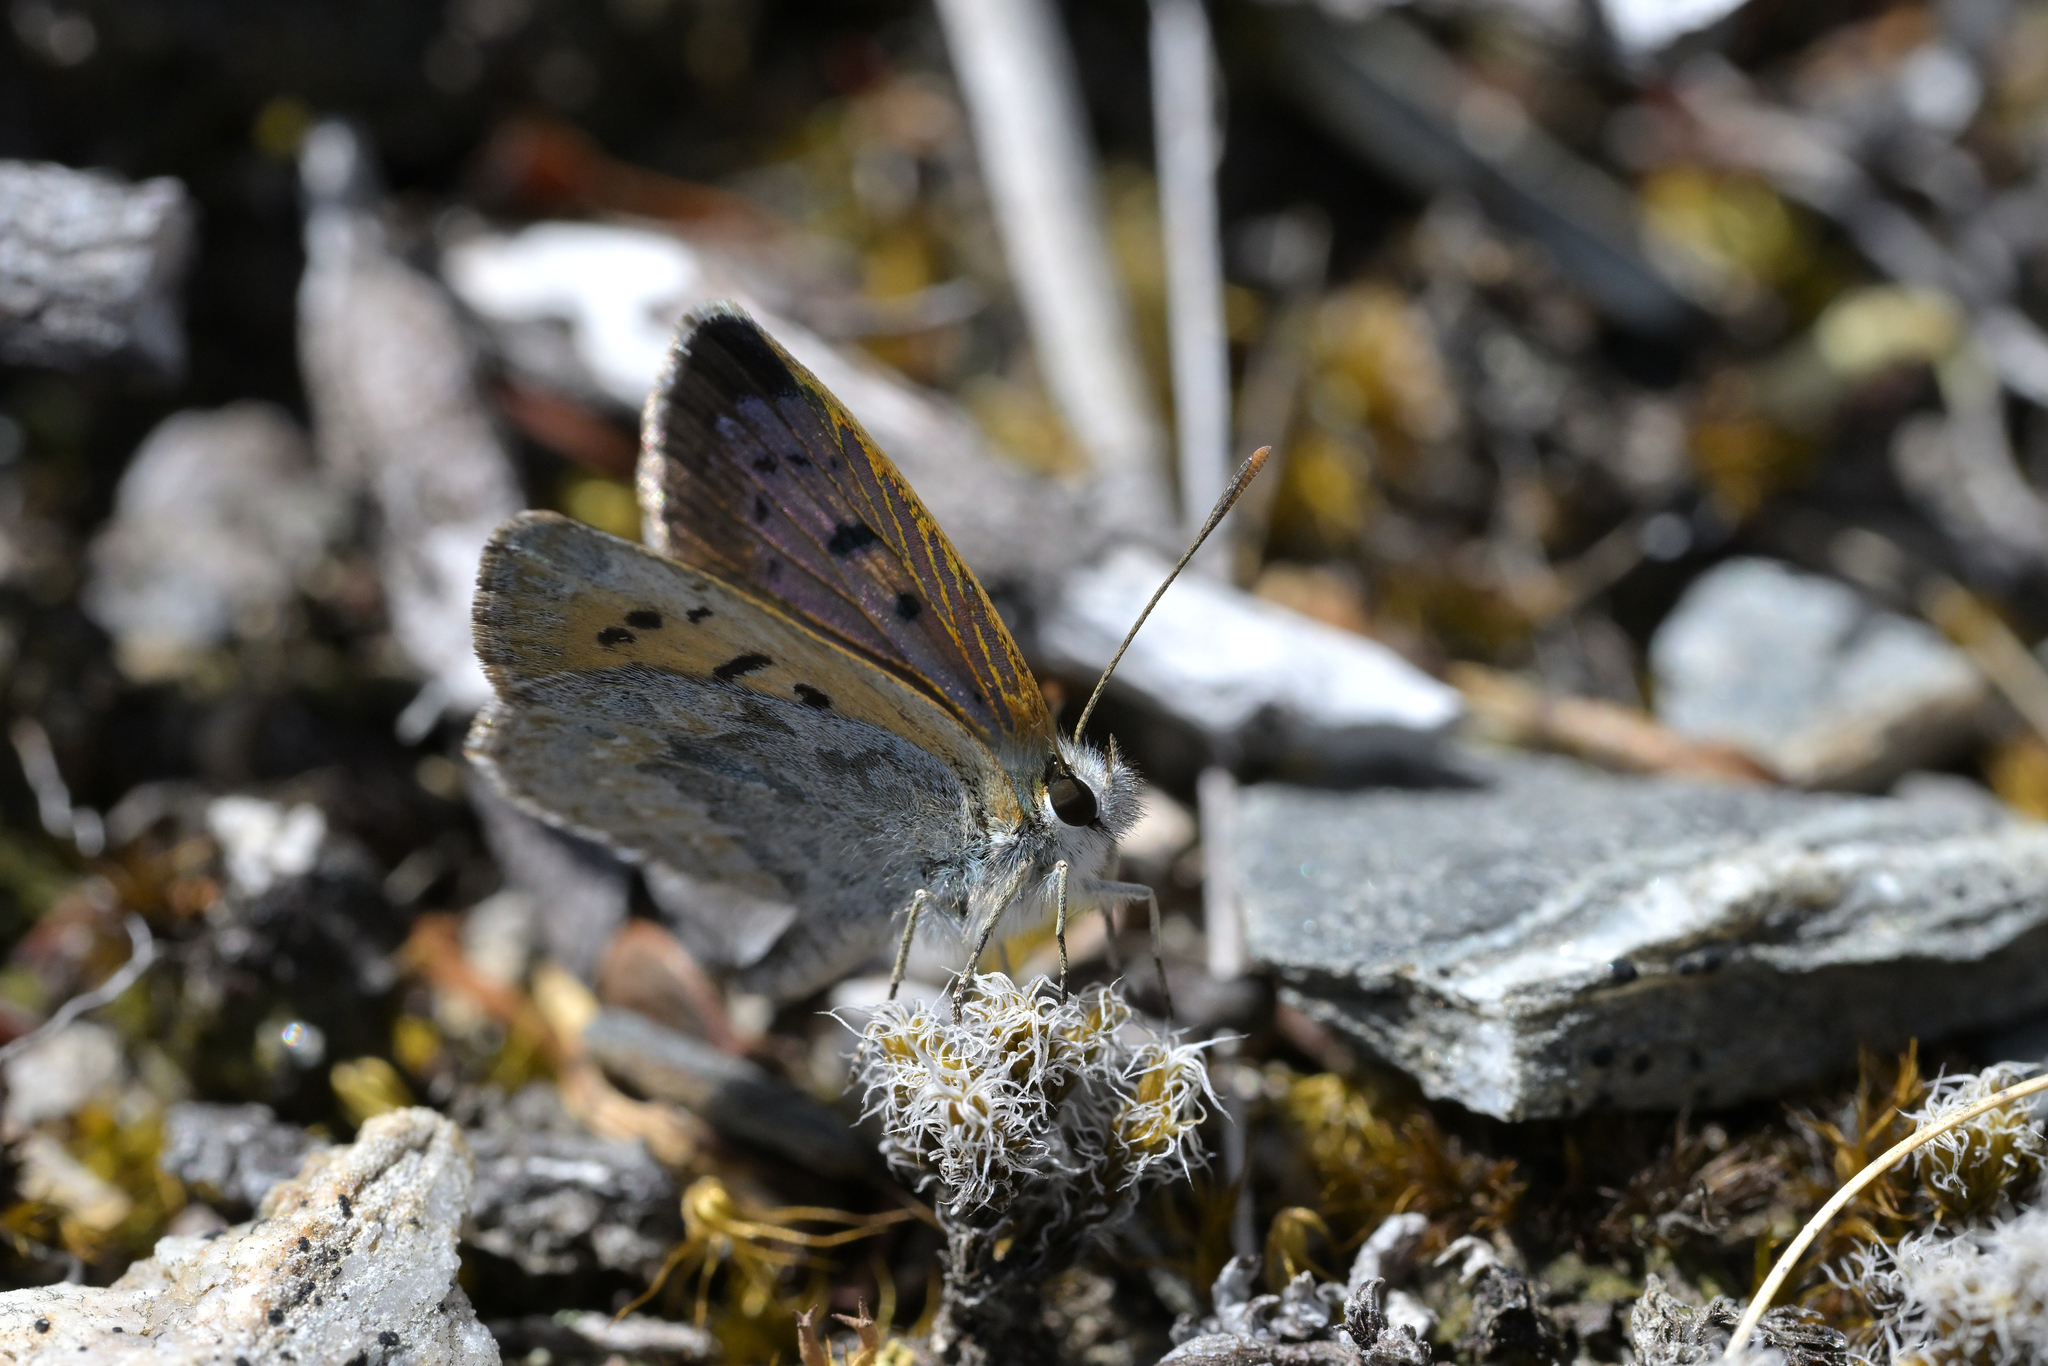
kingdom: Animalia
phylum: Arthropoda
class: Insecta
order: Lepidoptera
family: Lycaenidae
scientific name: Lycaenidae
